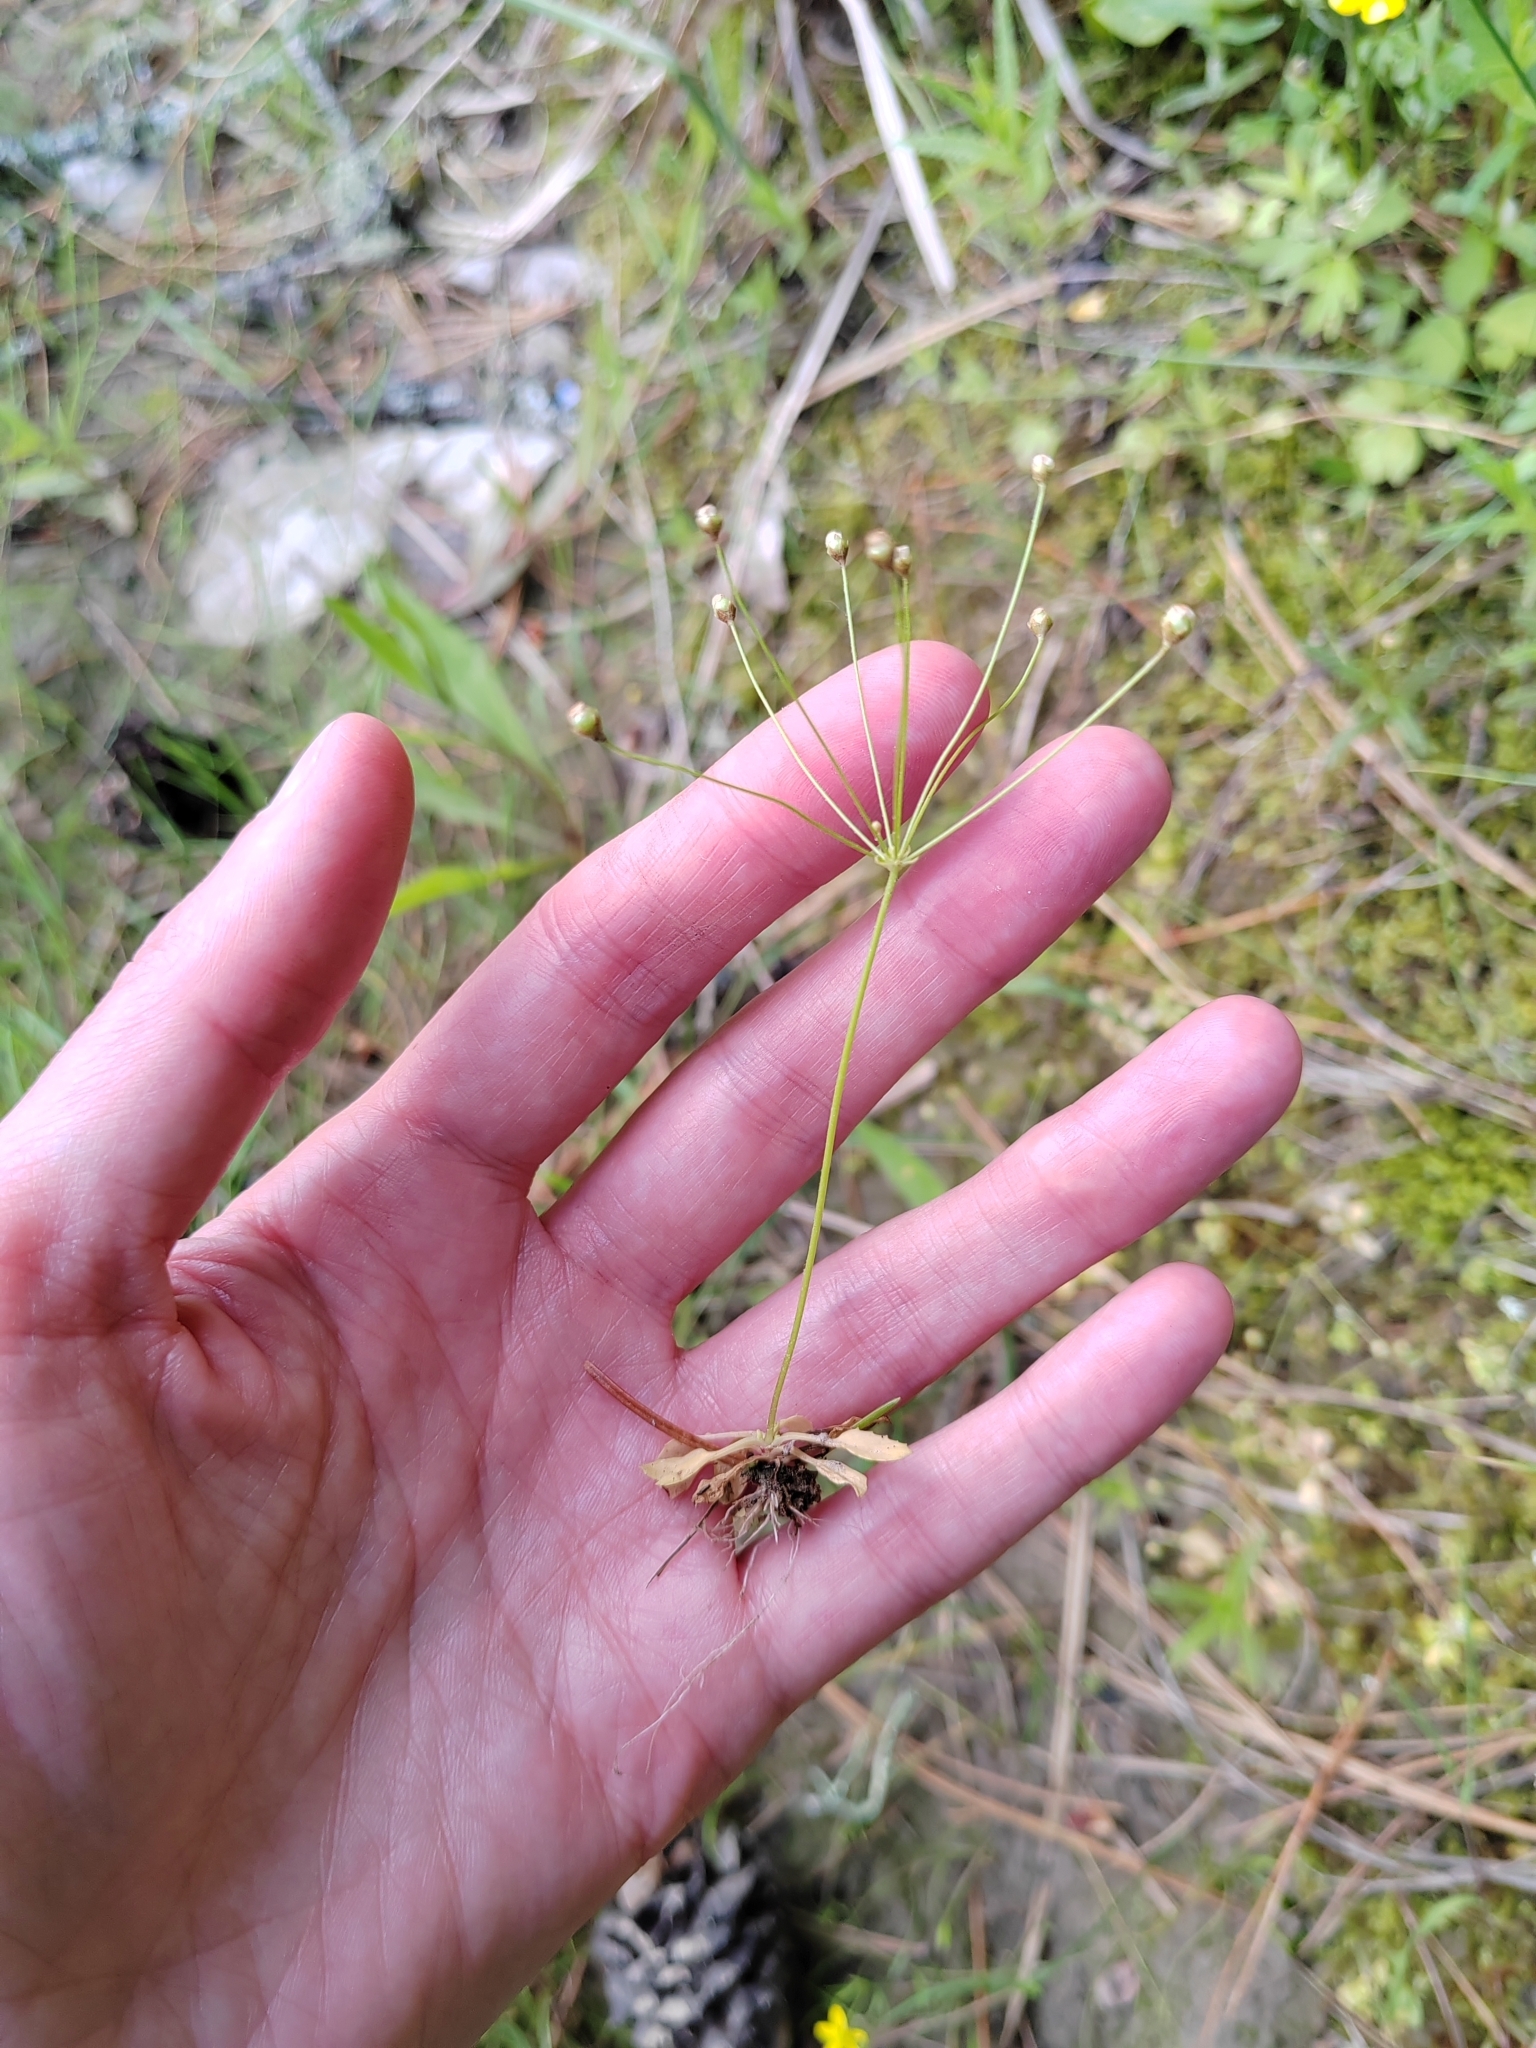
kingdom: Plantae
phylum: Tracheophyta
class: Magnoliopsida
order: Ericales
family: Primulaceae
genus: Androsace
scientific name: Androsace filiformis
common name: Filiform rock jasmine
